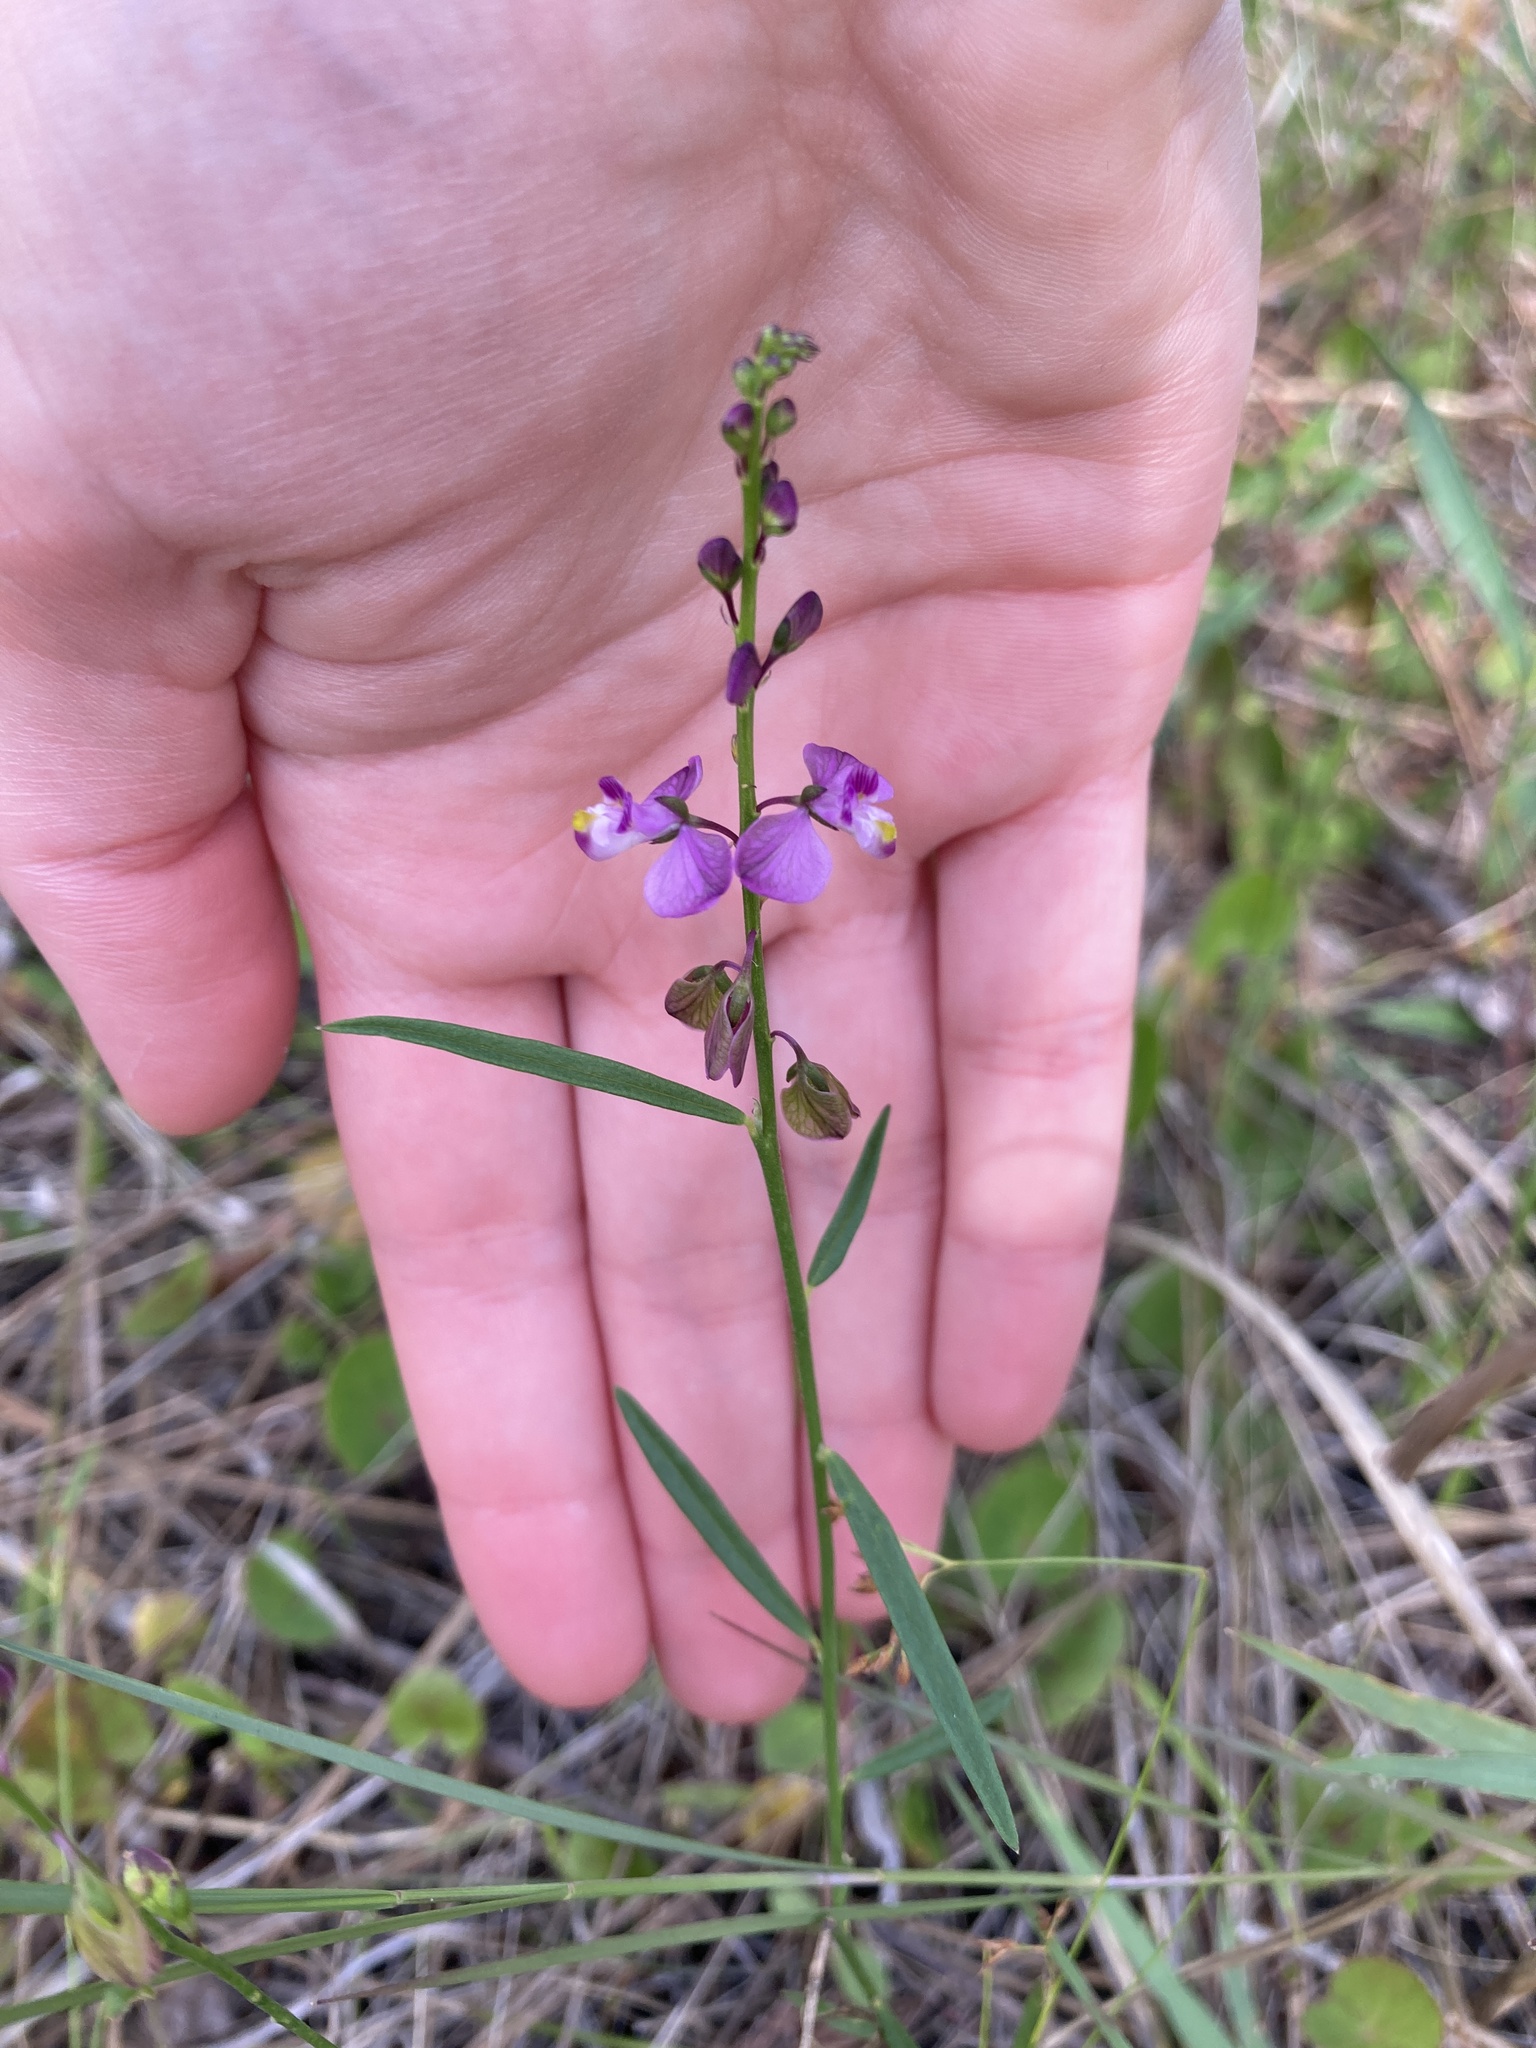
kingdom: Plantae
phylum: Tracheophyta
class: Magnoliopsida
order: Fabales
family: Polygalaceae
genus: Asemeia
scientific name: Asemeia grandiflora
